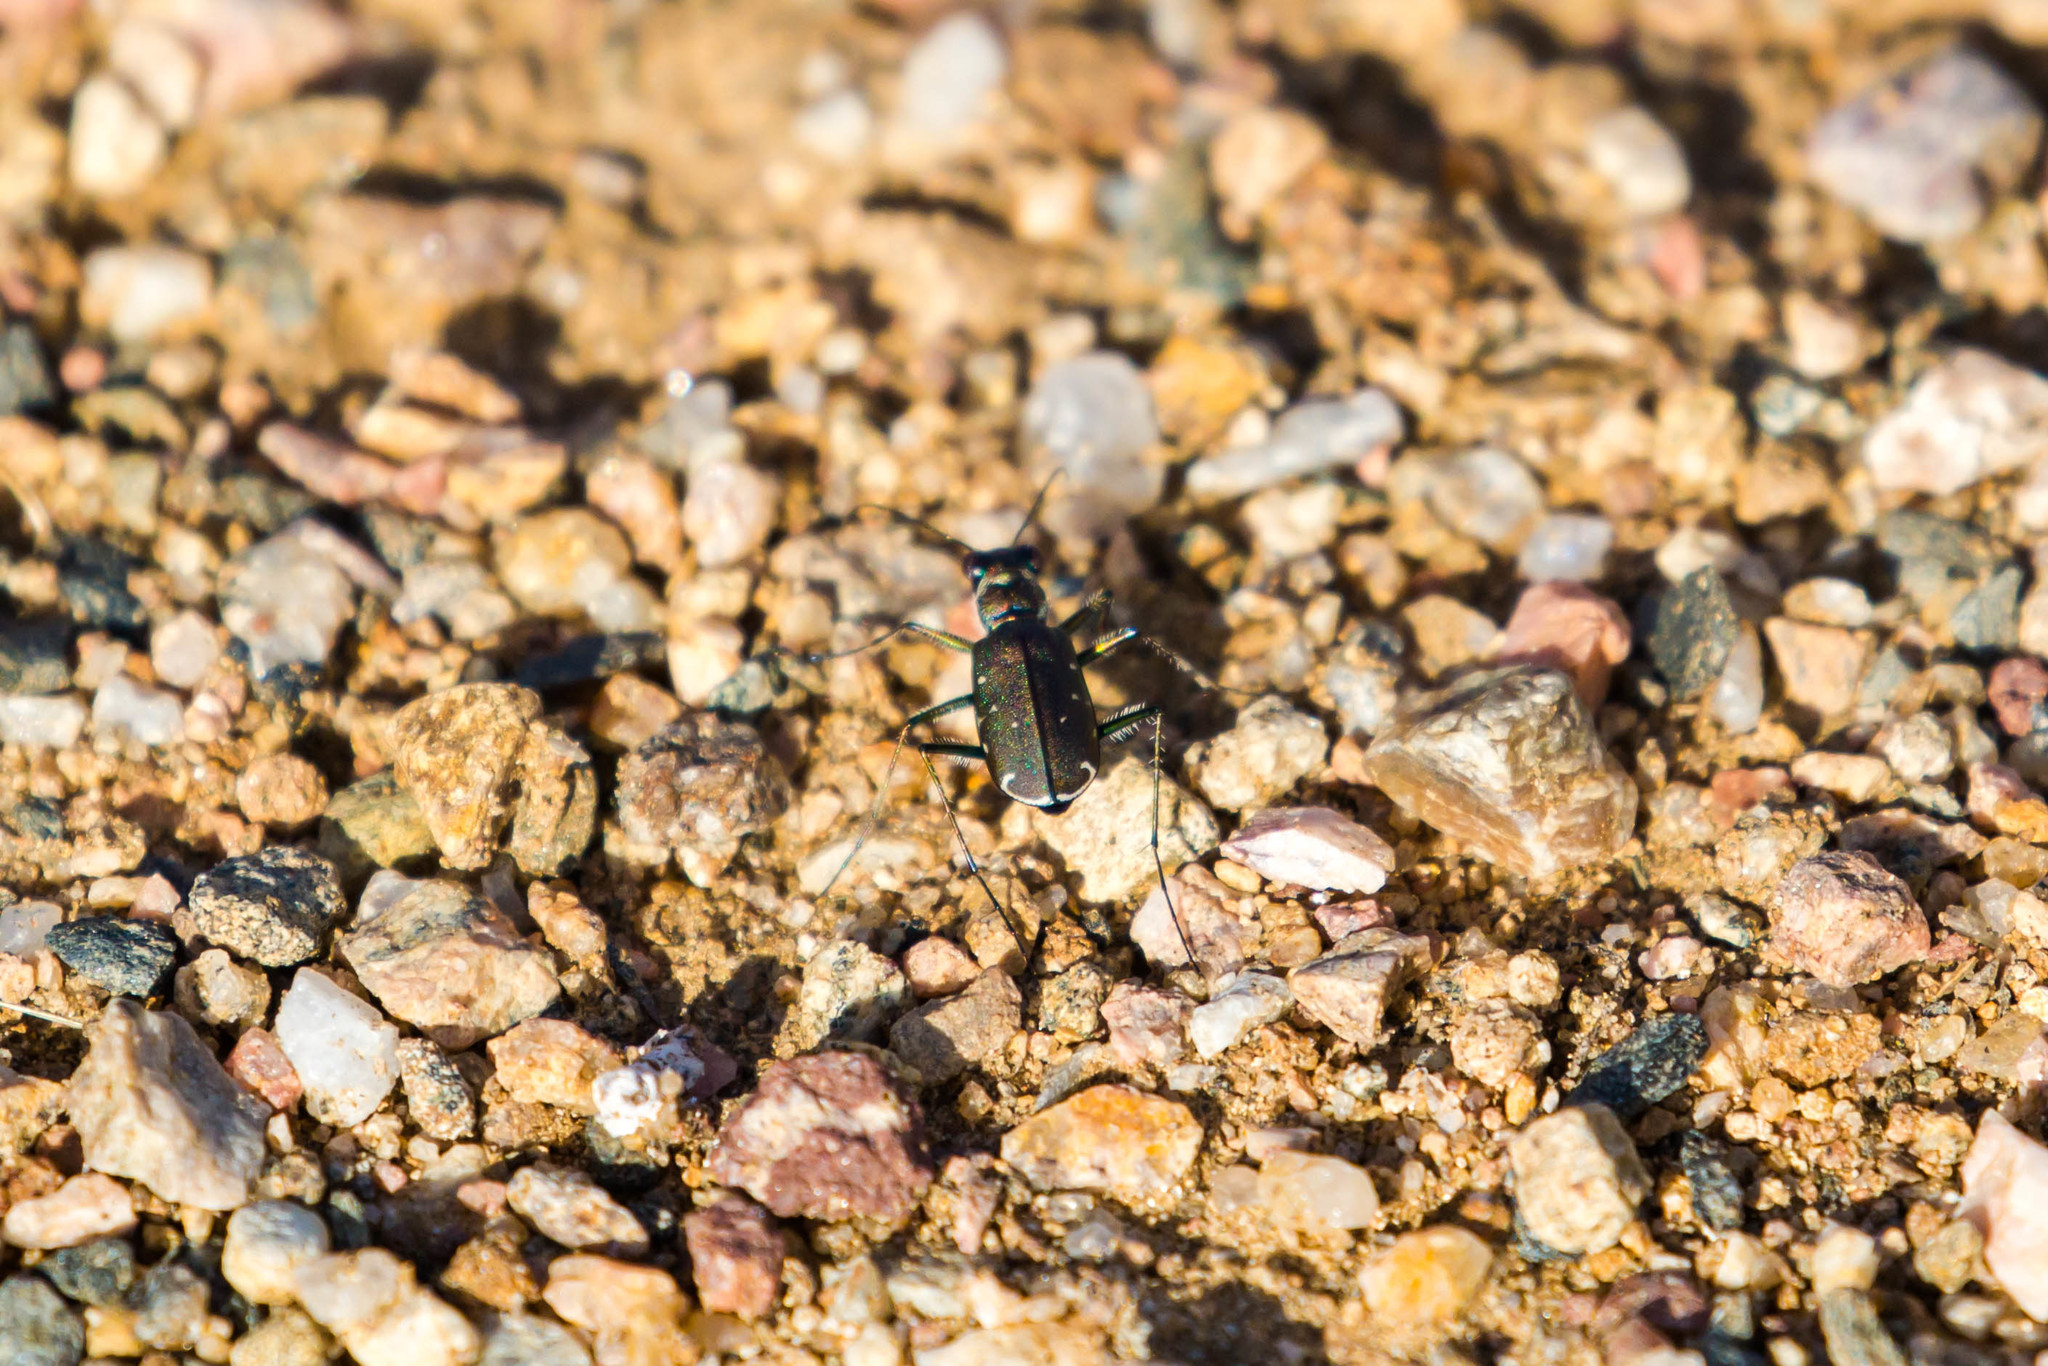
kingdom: Animalia
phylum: Arthropoda
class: Insecta
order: Coleoptera
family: Carabidae
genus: Cicindela
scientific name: Cicindela punctulata
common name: Punctured tiger beetle
